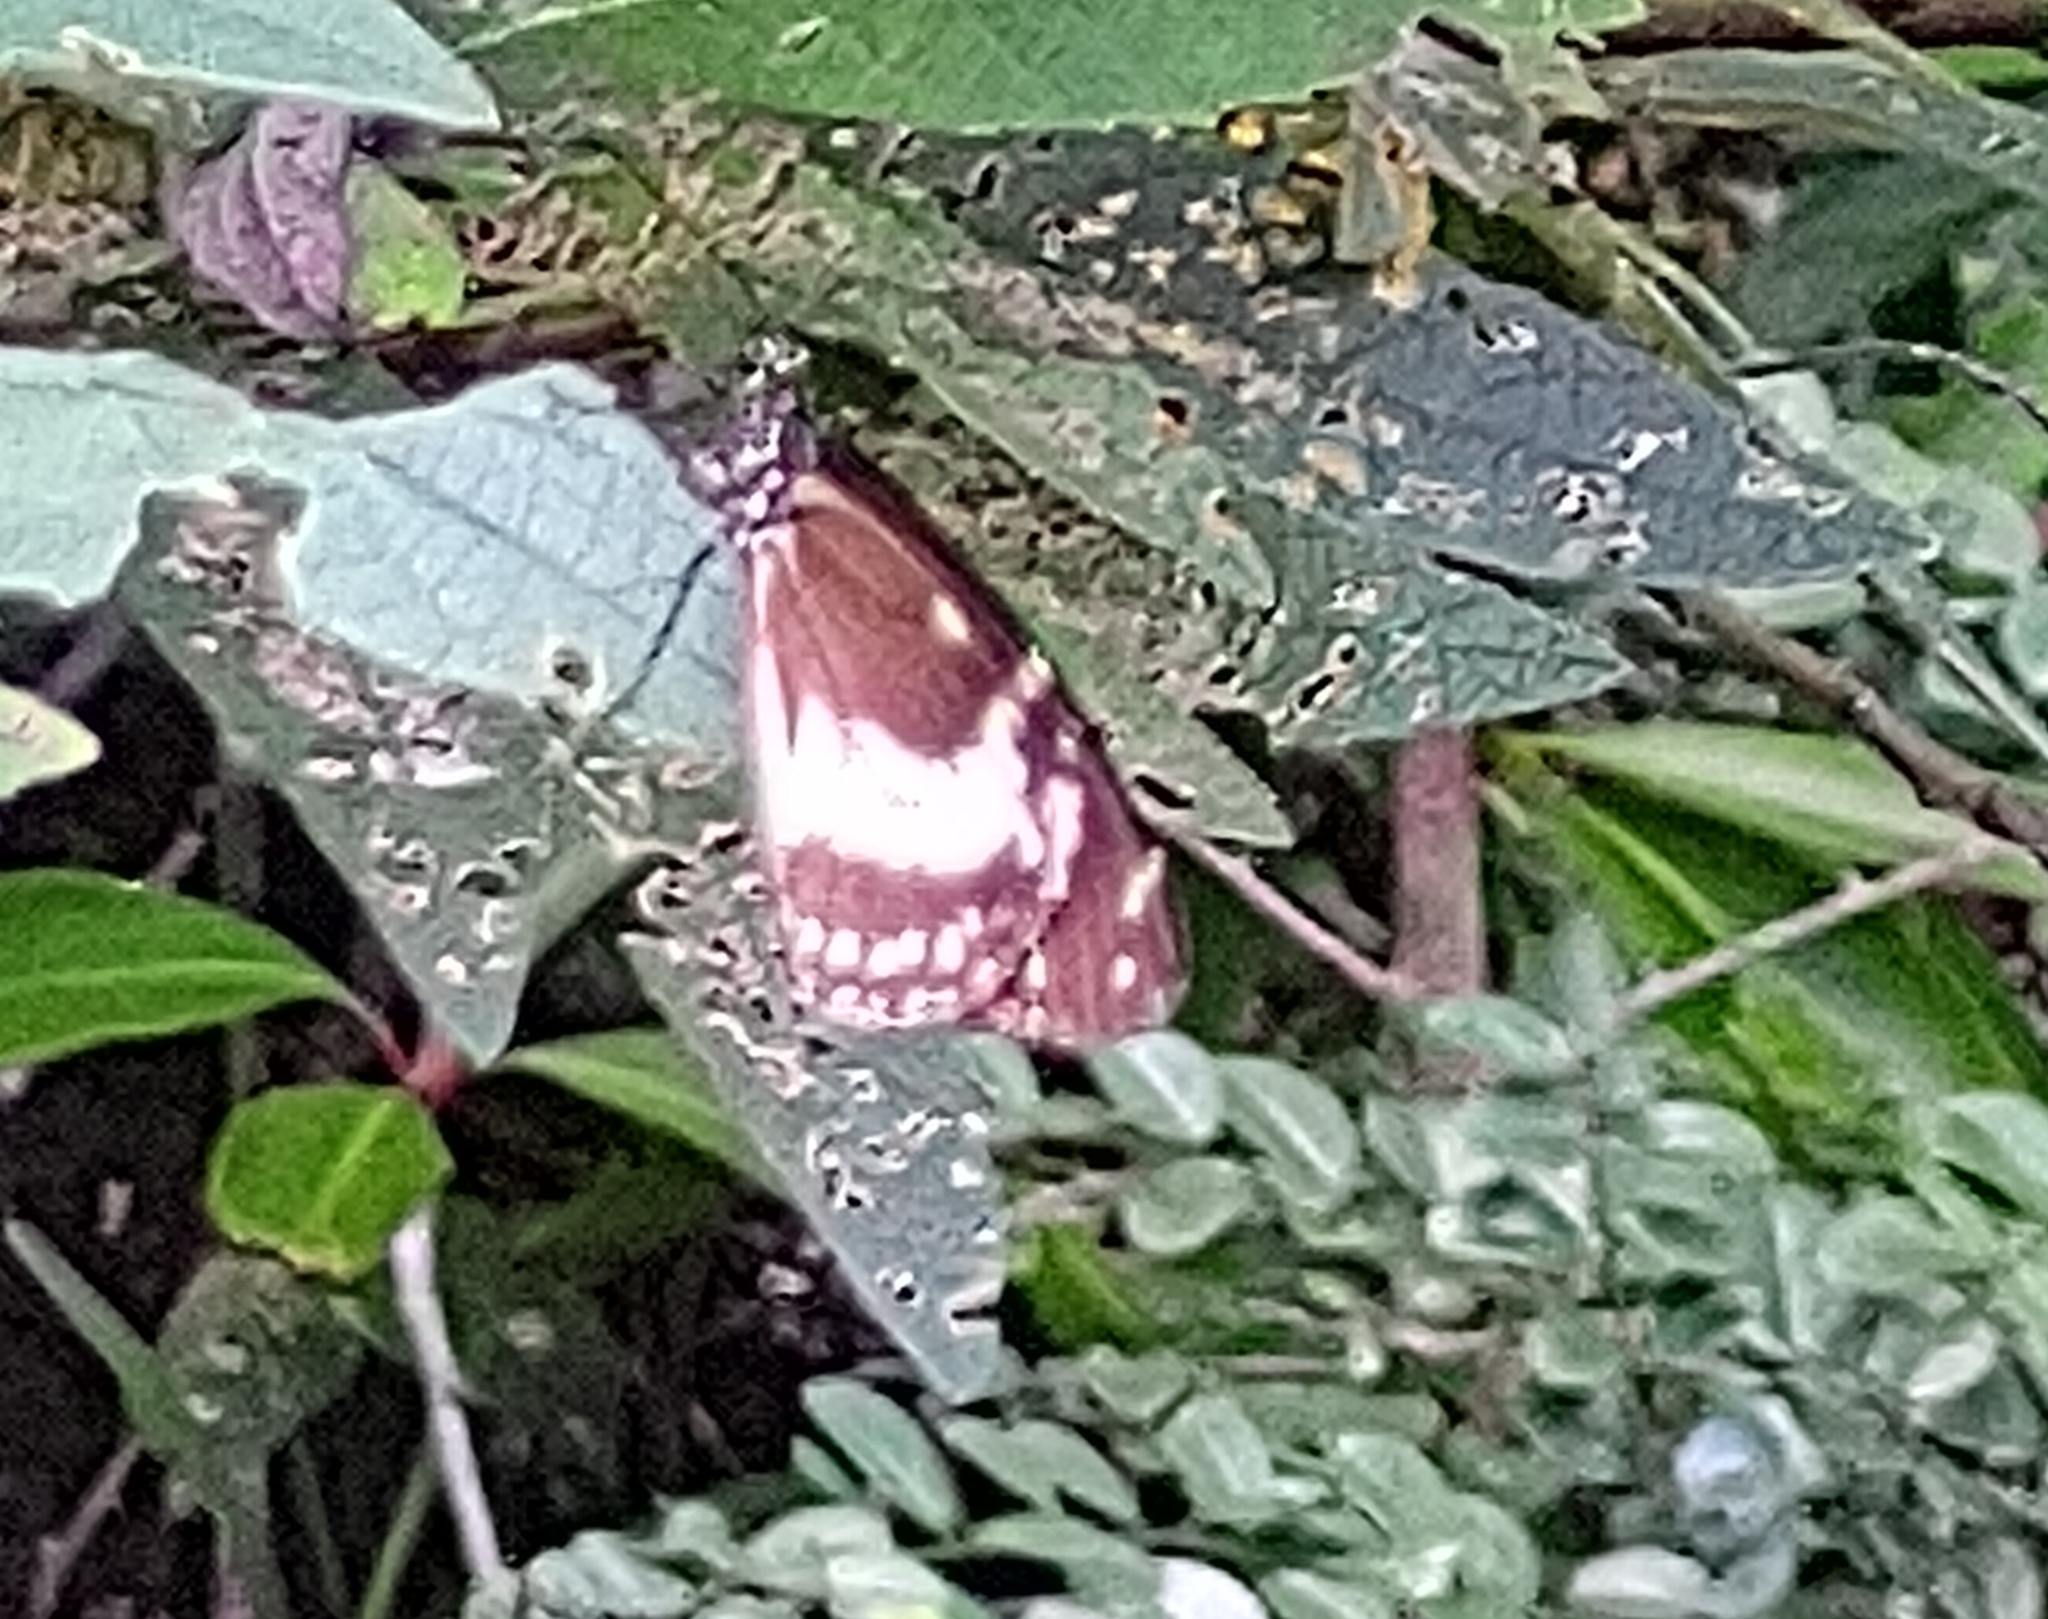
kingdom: Animalia
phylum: Arthropoda
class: Insecta
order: Lepidoptera
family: Nymphalidae
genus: Amauris
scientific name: Amauris phoedon
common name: Mauritian friar
